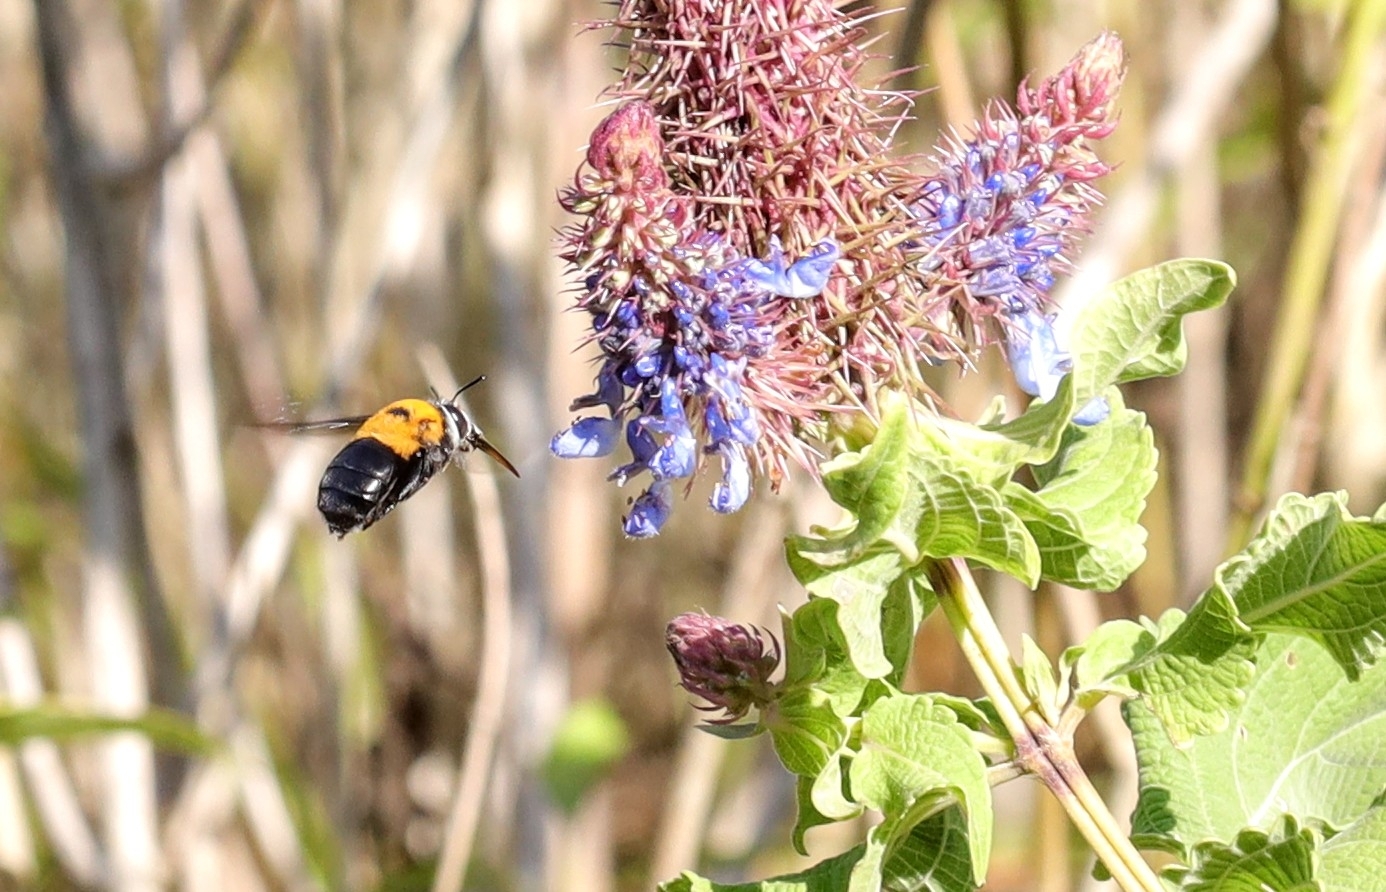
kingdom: Plantae
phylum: Tracheophyta
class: Magnoliopsida
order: Lamiales
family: Lamiaceae
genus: Coleus
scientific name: Coleus livingstonei
